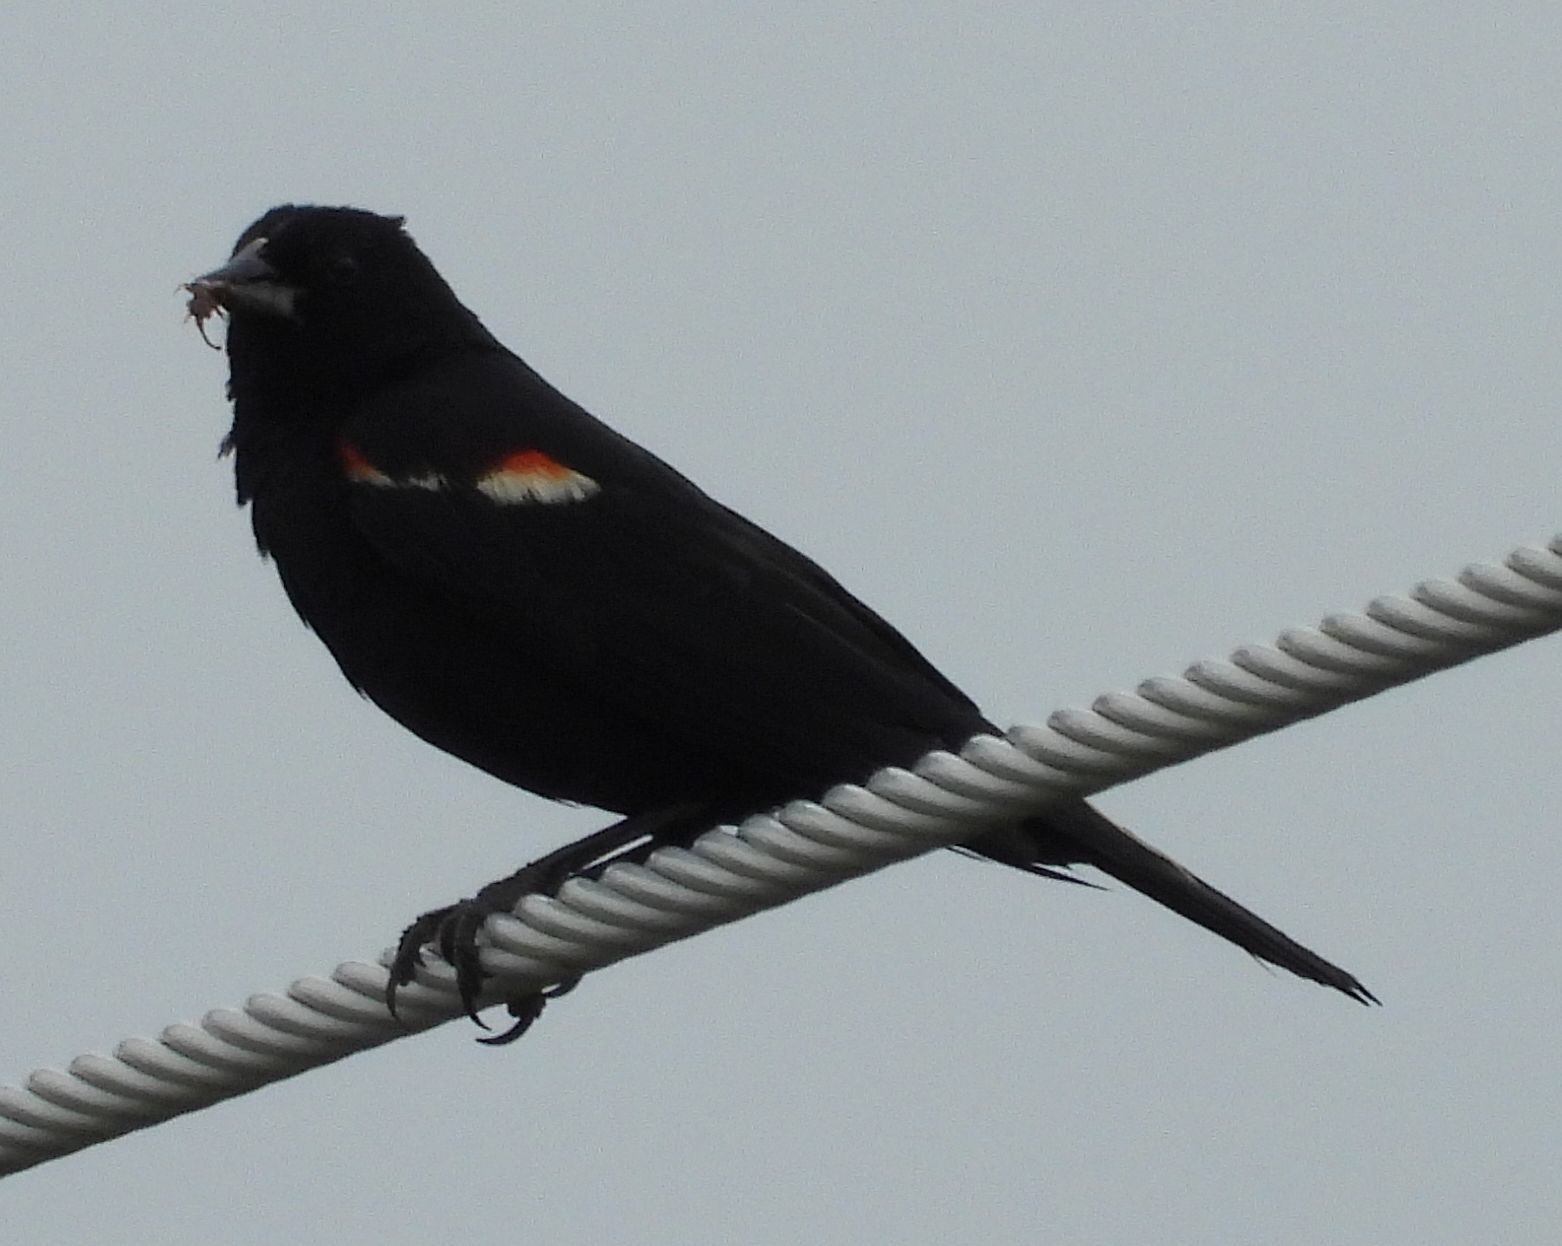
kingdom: Animalia
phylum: Chordata
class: Aves
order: Passeriformes
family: Icteridae
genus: Agelaius
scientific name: Agelaius phoeniceus
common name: Red-winged blackbird
